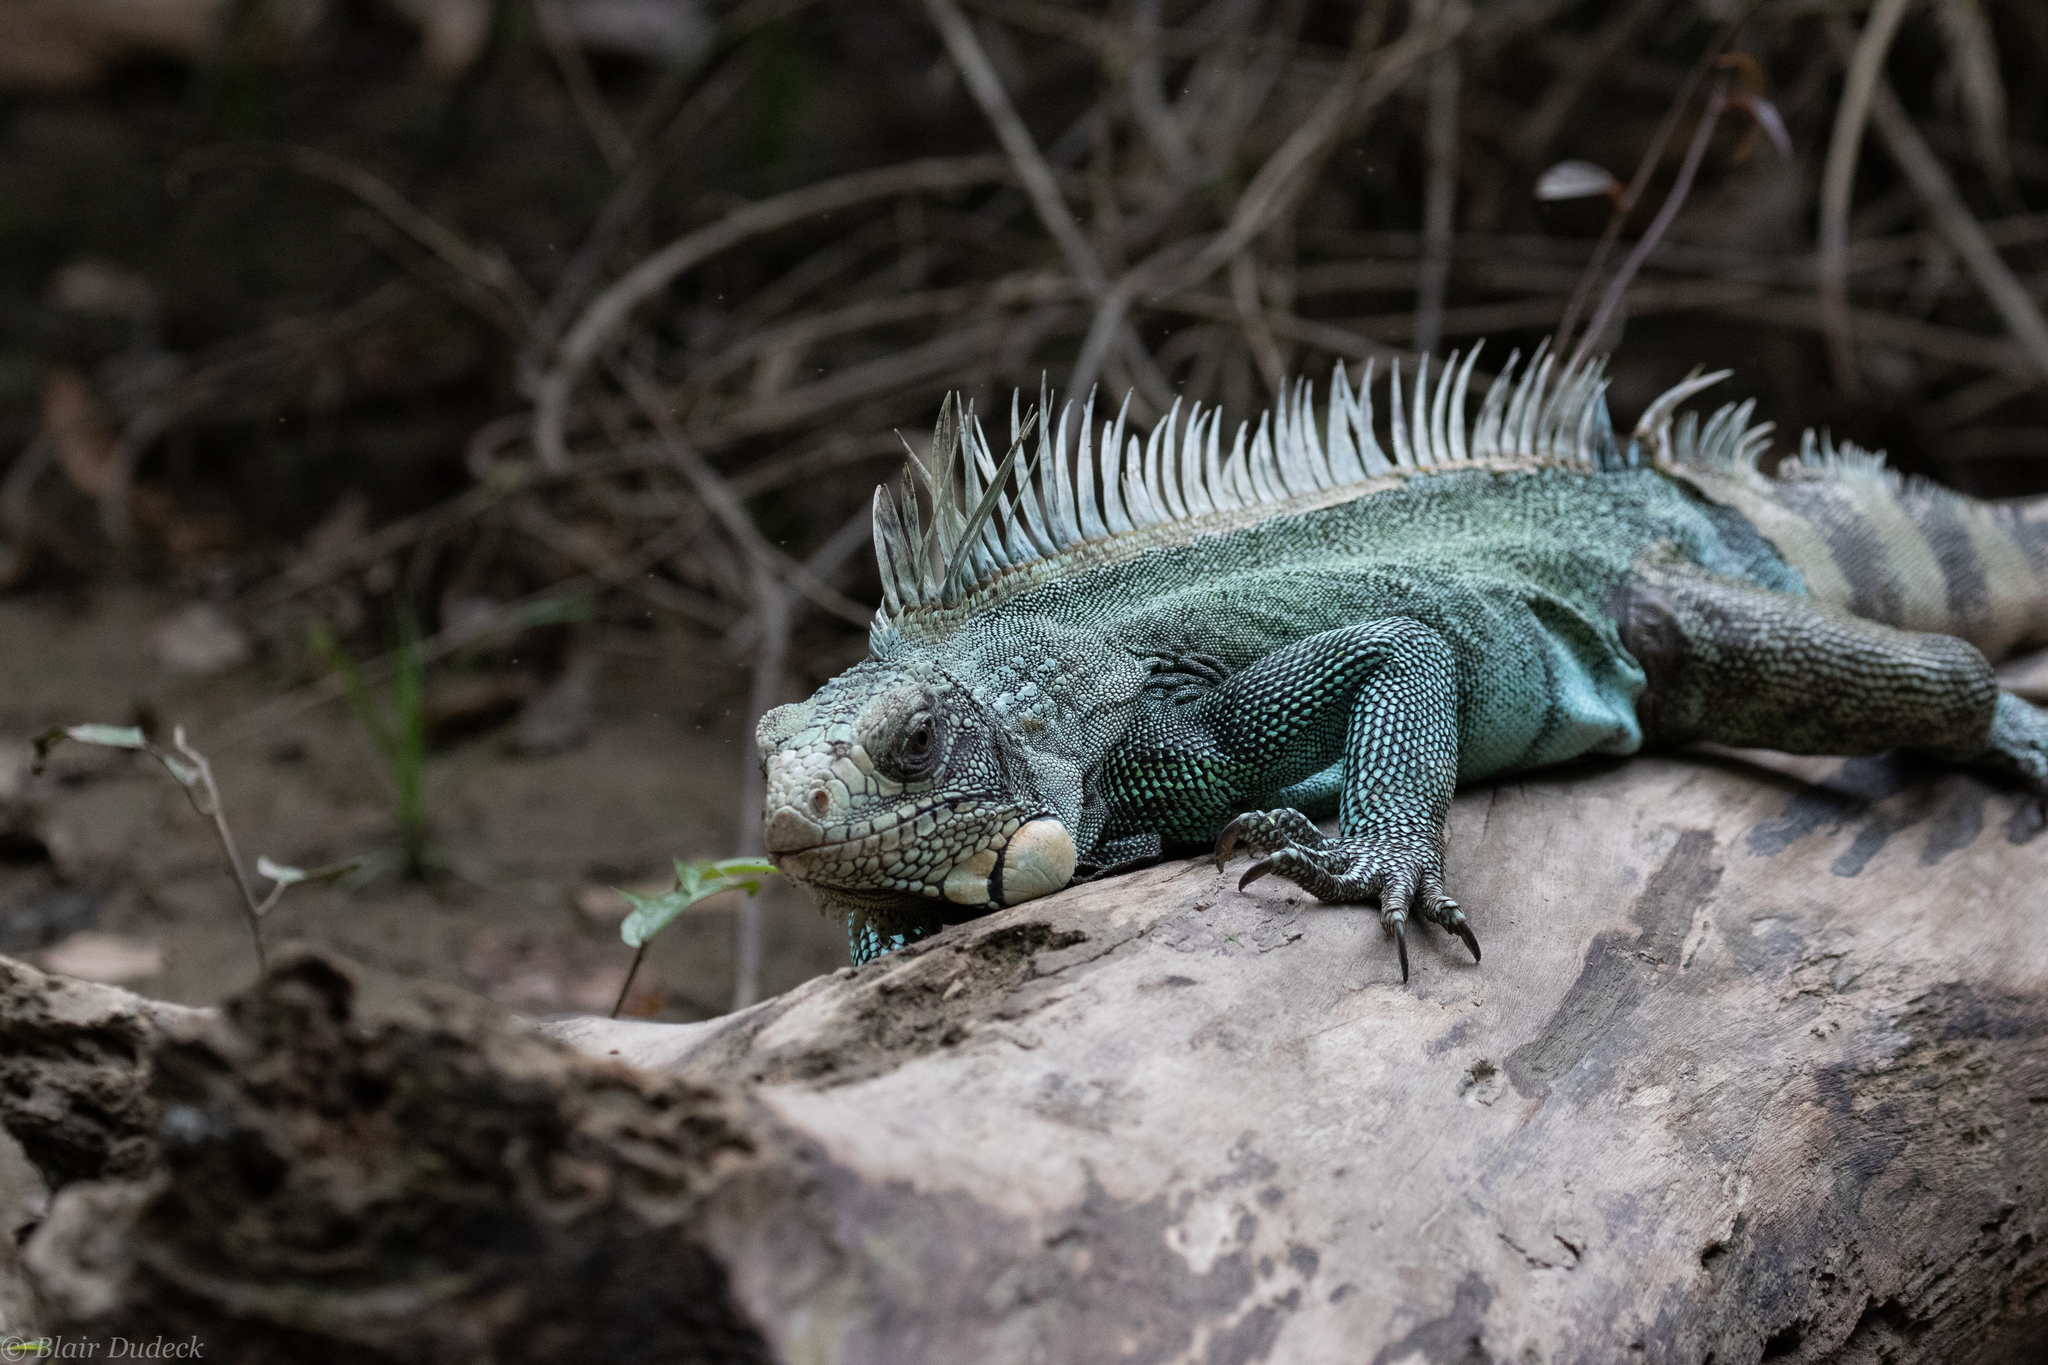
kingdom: Animalia
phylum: Chordata
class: Squamata
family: Iguanidae
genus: Iguana
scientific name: Iguana iguana
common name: Green iguana
